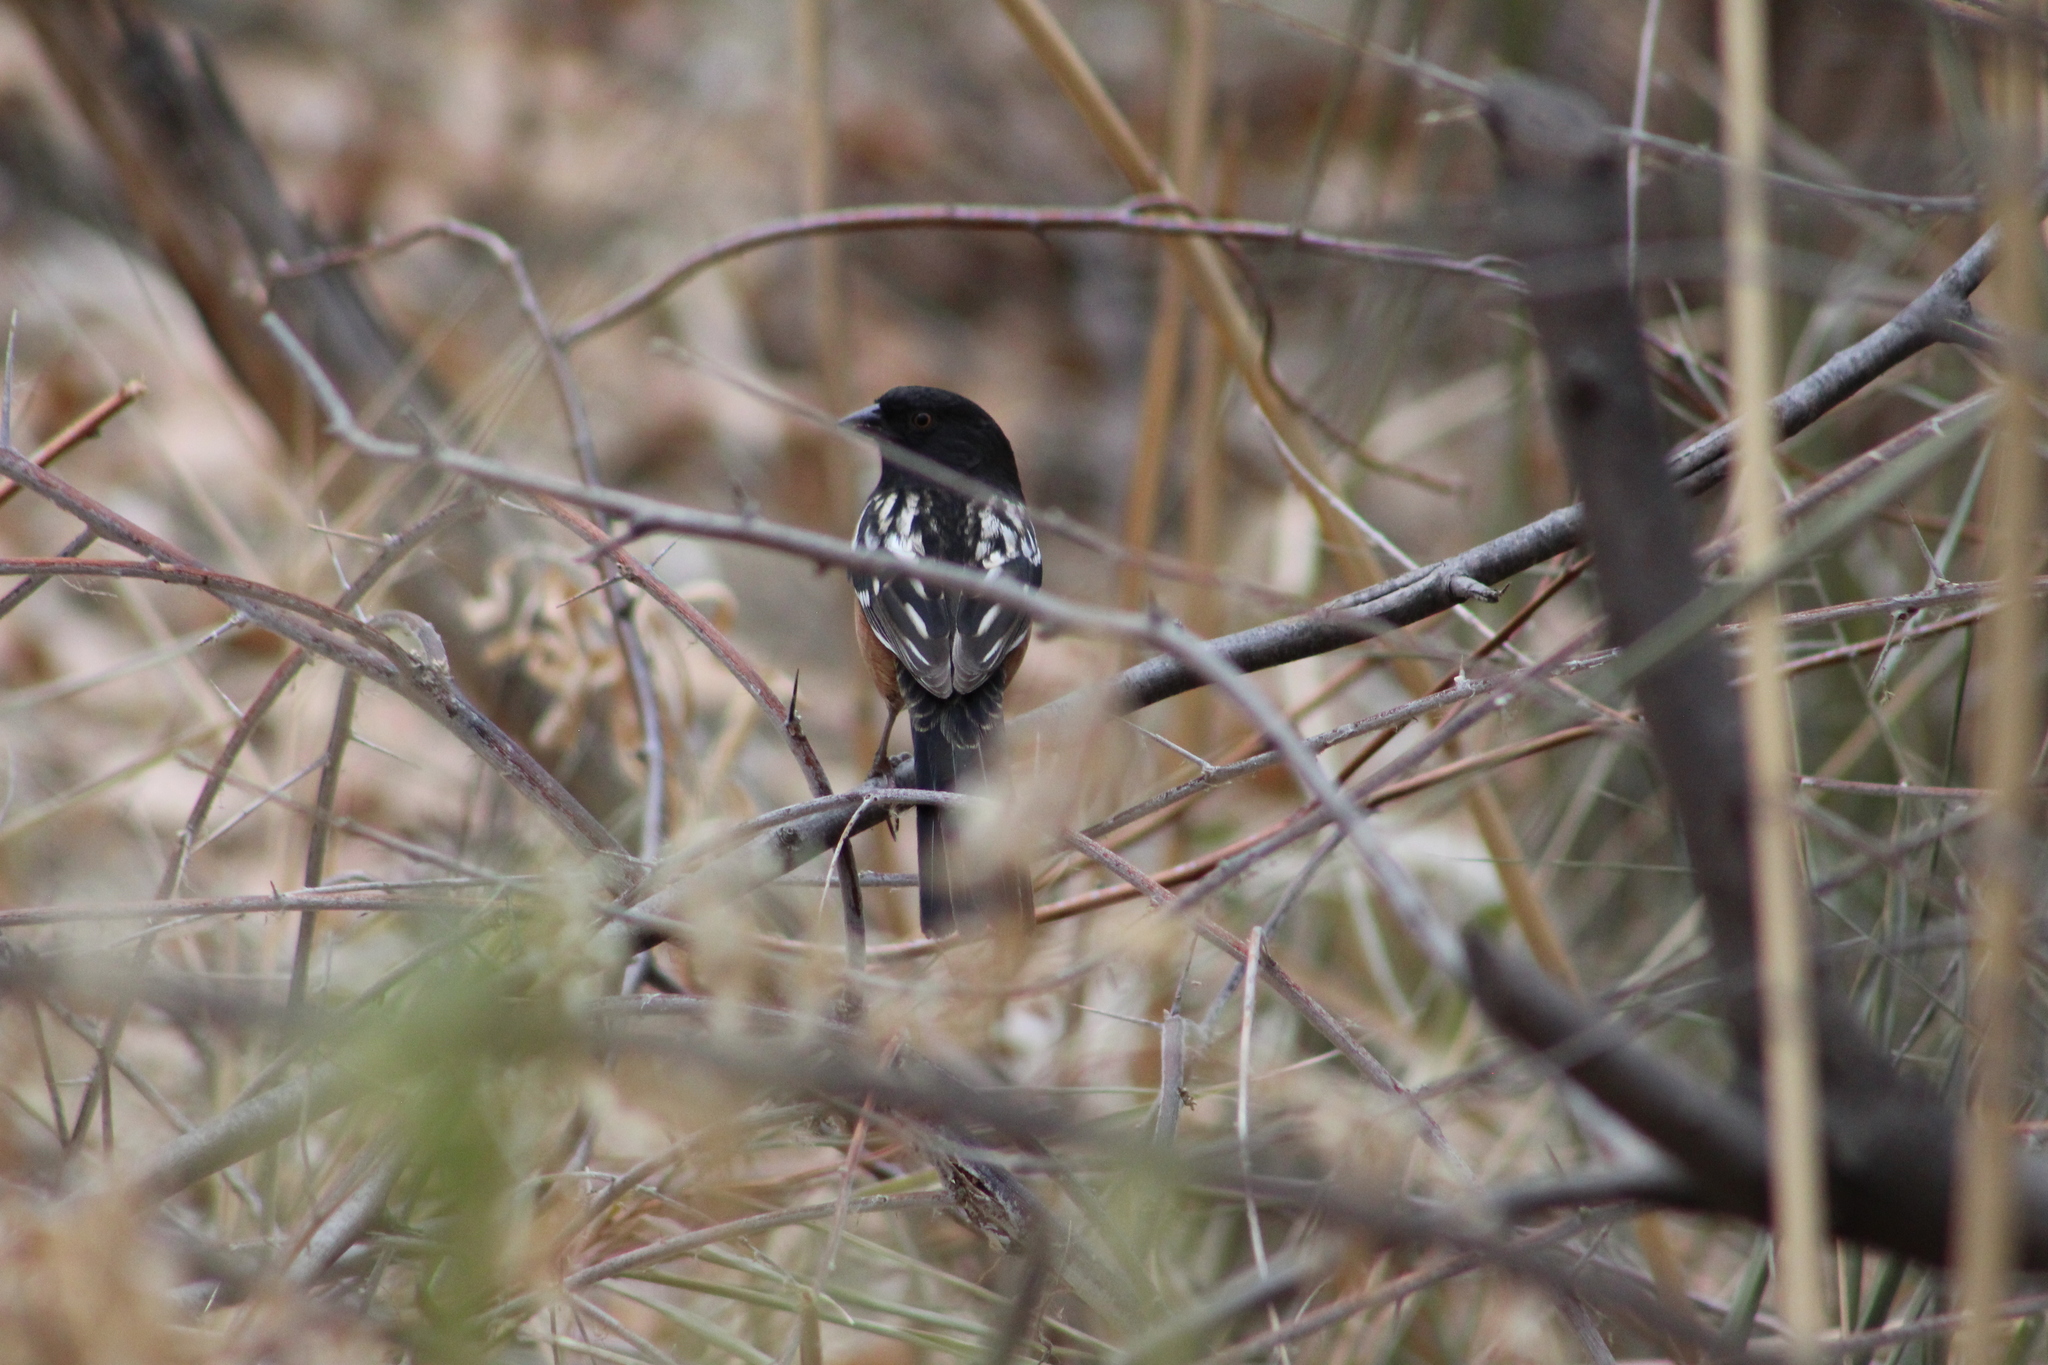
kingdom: Animalia
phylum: Chordata
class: Aves
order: Passeriformes
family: Passerellidae
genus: Pipilo
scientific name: Pipilo maculatus
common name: Spotted towhee
